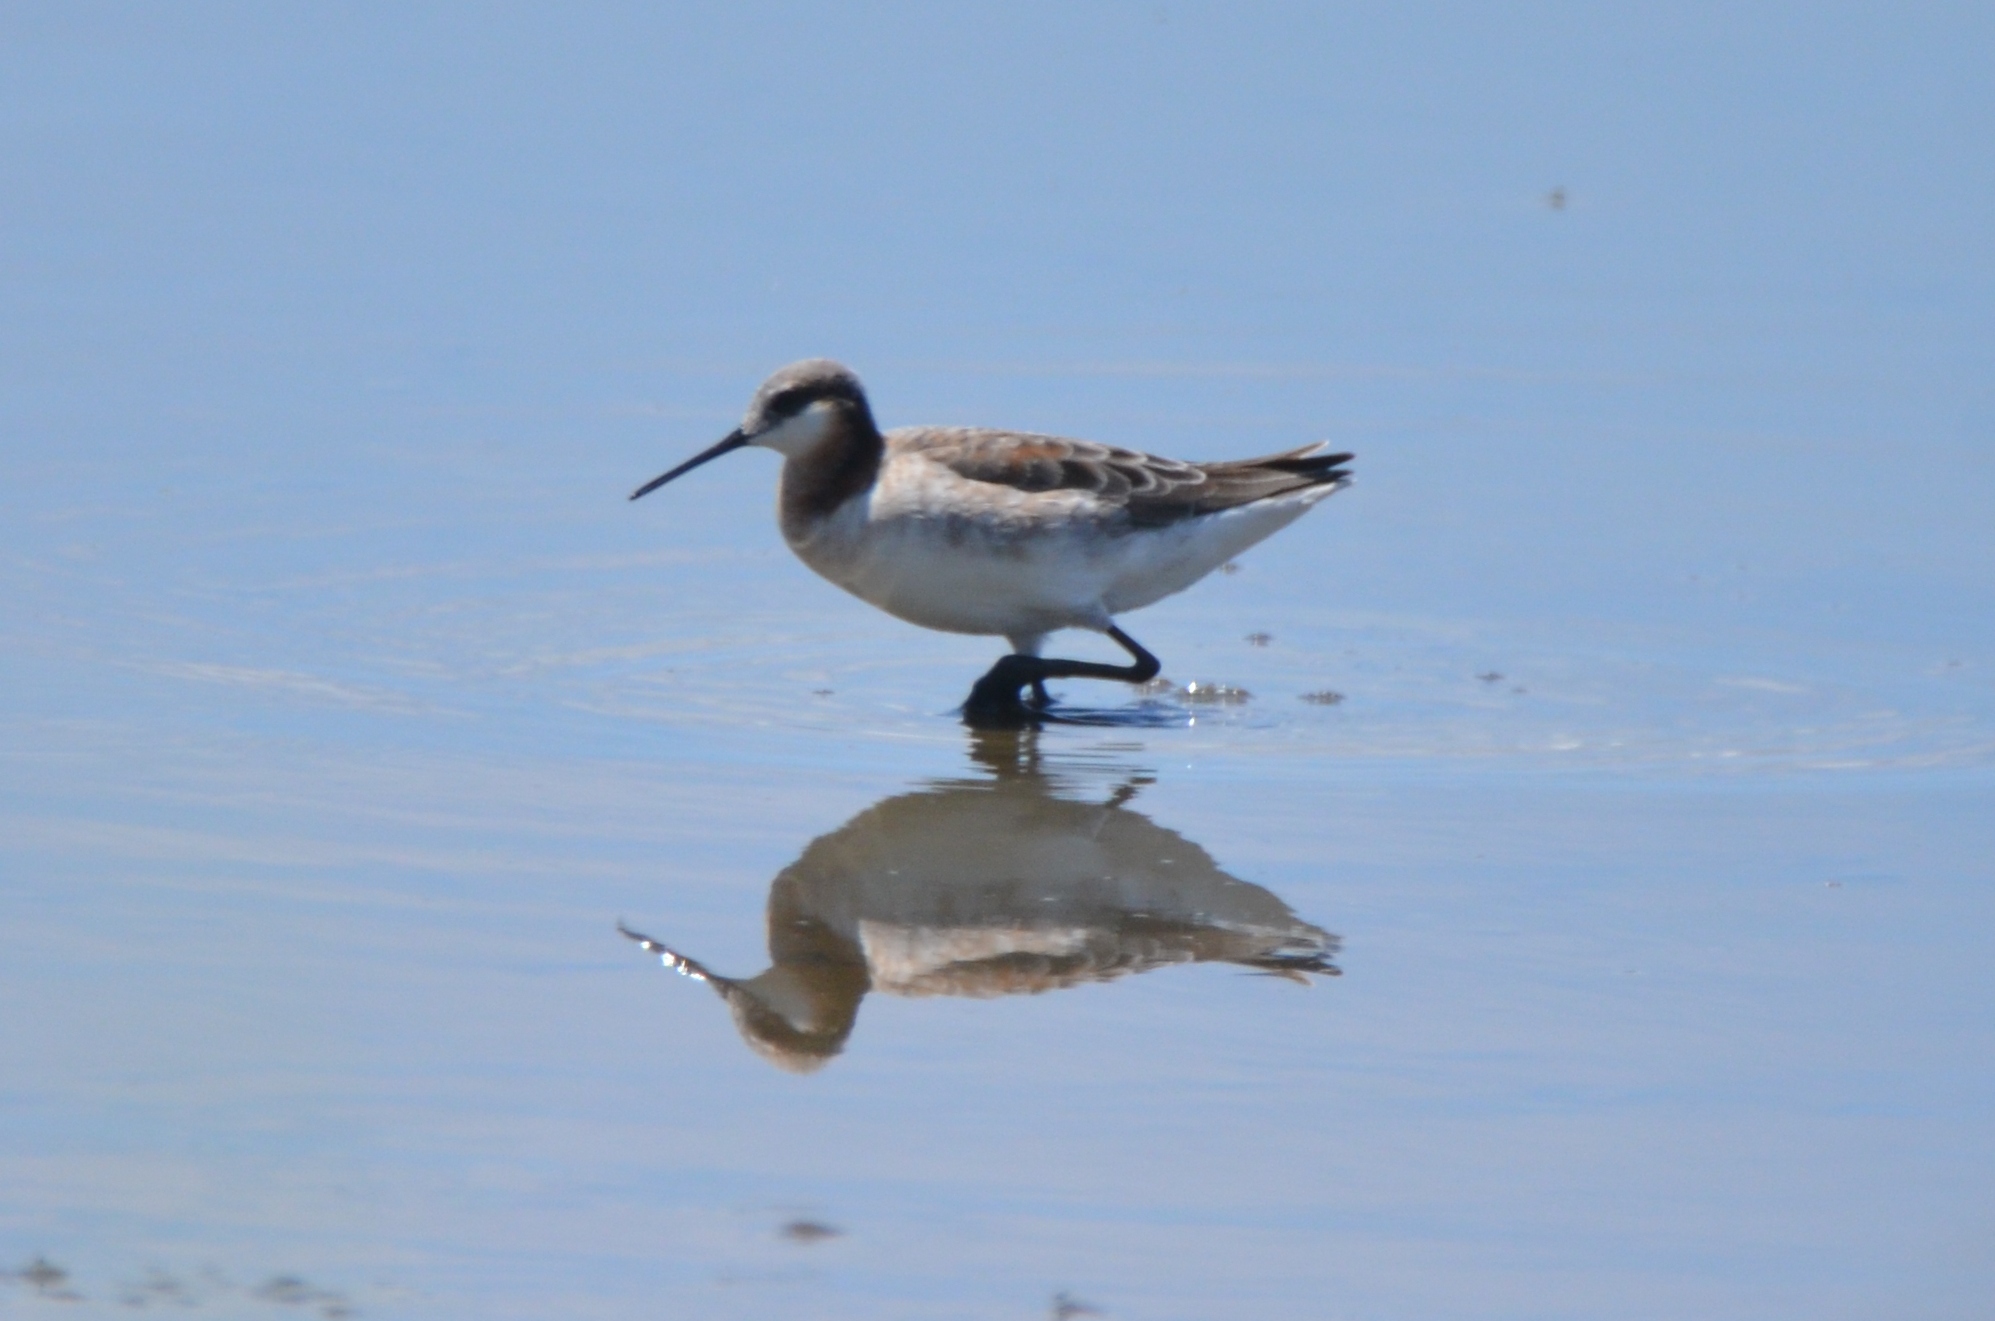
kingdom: Animalia
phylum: Chordata
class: Aves
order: Charadriiformes
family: Scolopacidae
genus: Phalaropus
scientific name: Phalaropus tricolor
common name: Wilson's phalarope
